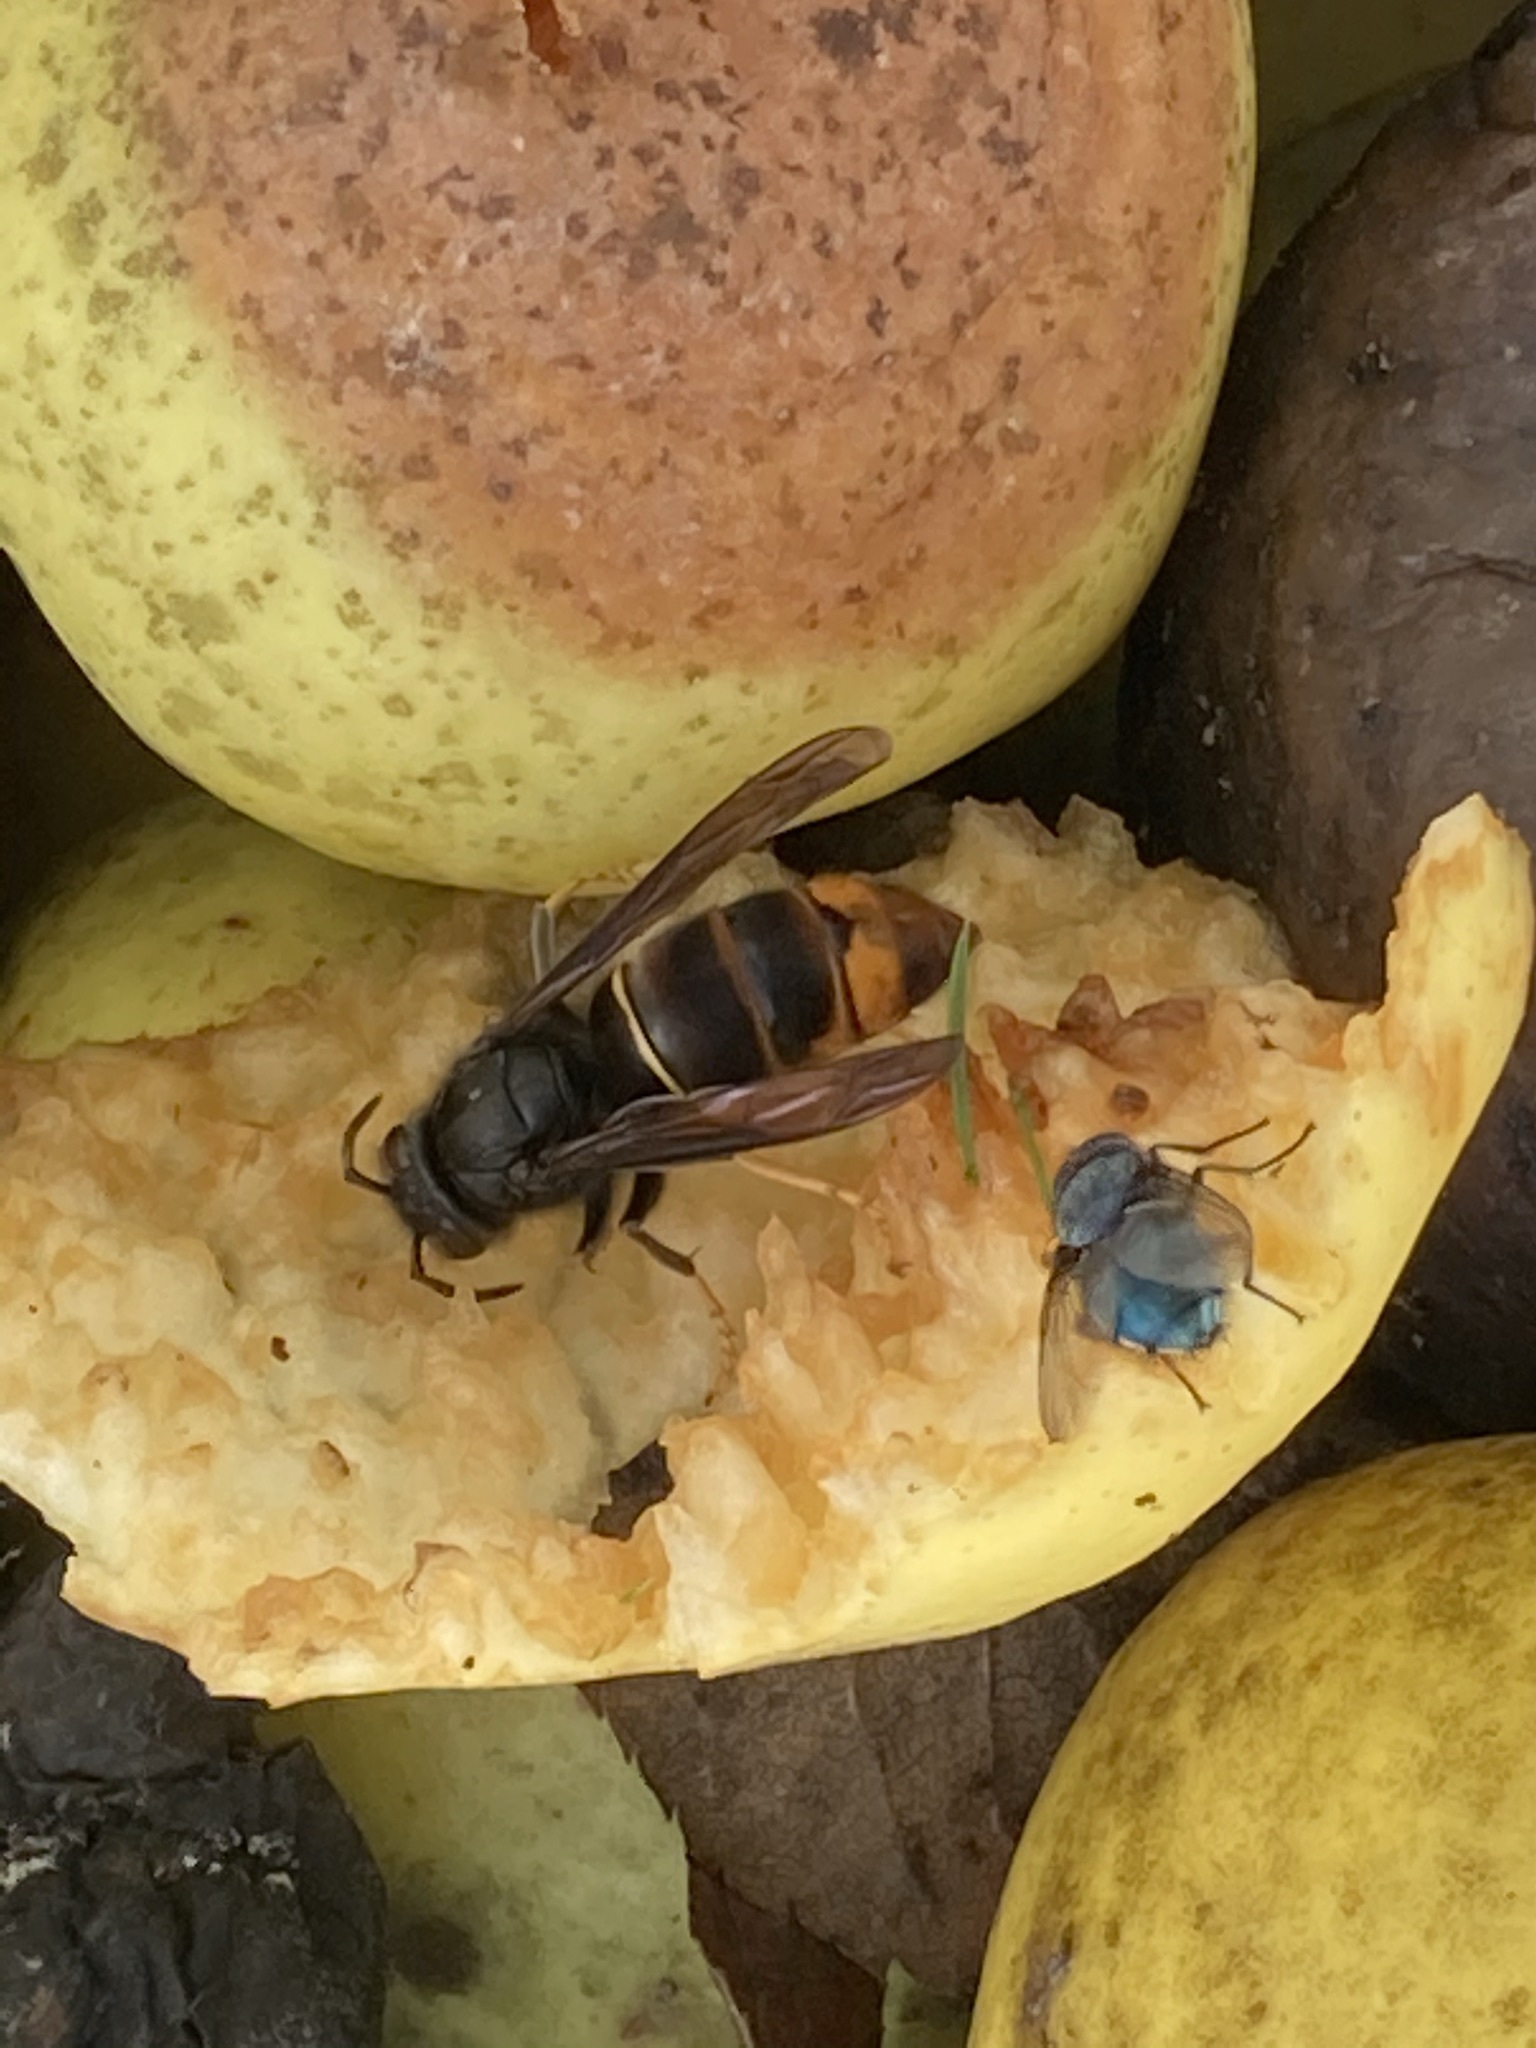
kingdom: Animalia
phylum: Arthropoda
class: Insecta
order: Hymenoptera
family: Vespidae
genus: Vespa
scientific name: Vespa velutina
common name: Asian hornet
